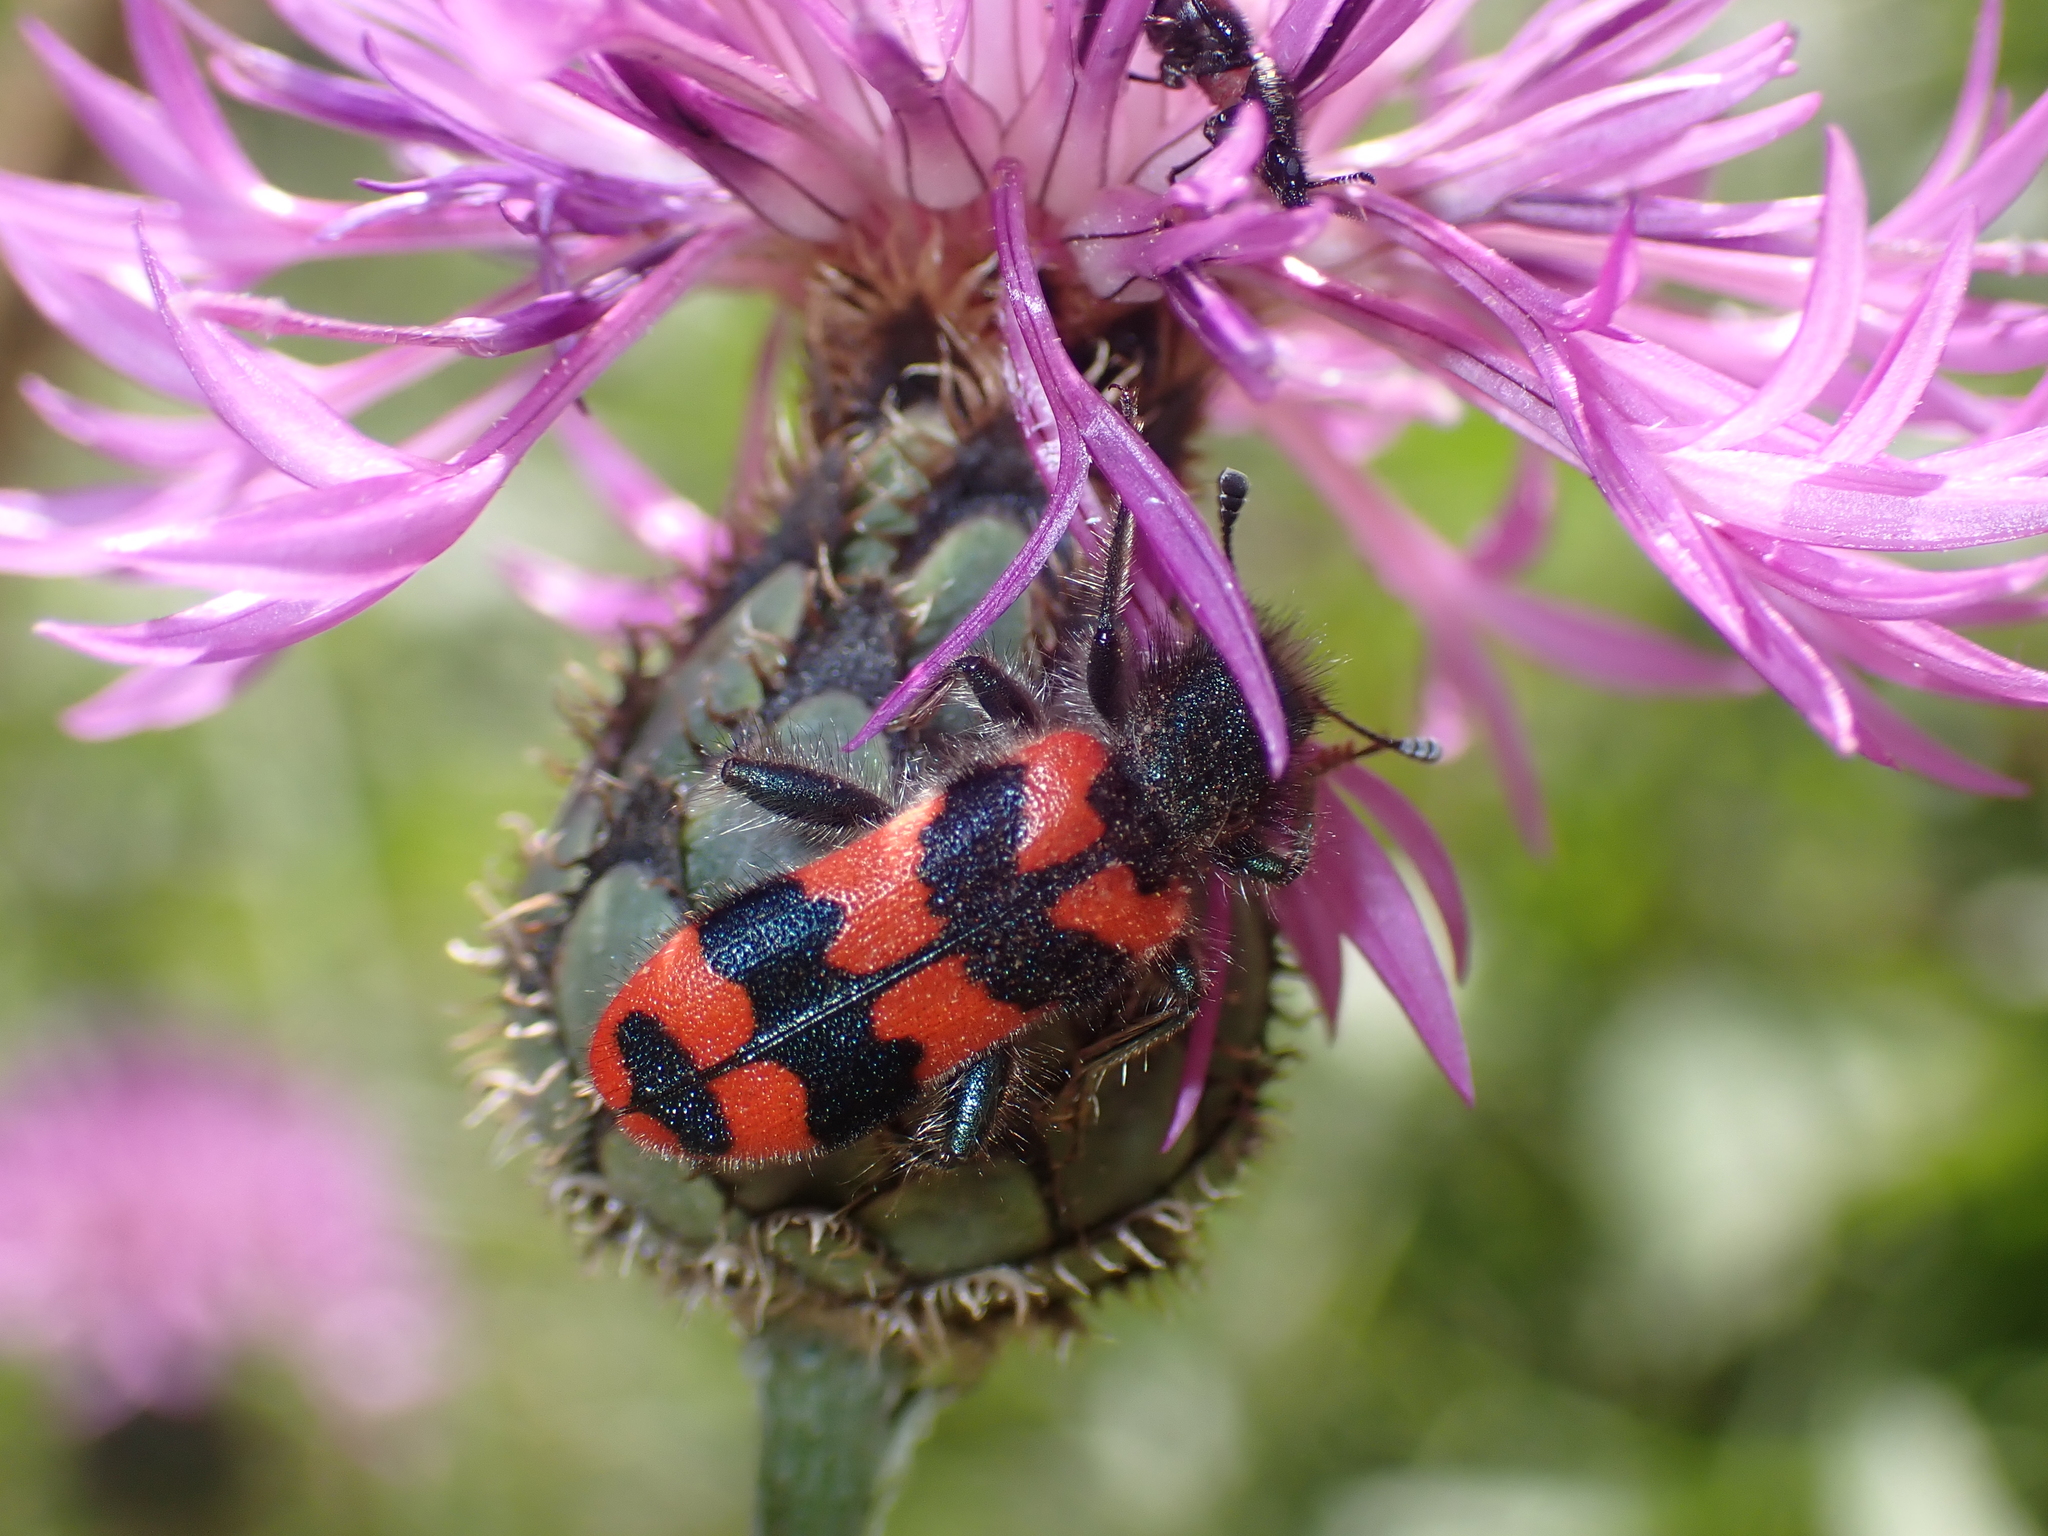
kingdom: Animalia
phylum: Arthropoda
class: Insecta
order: Coleoptera
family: Cleridae
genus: Trichodes
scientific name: Trichodes alvearius
